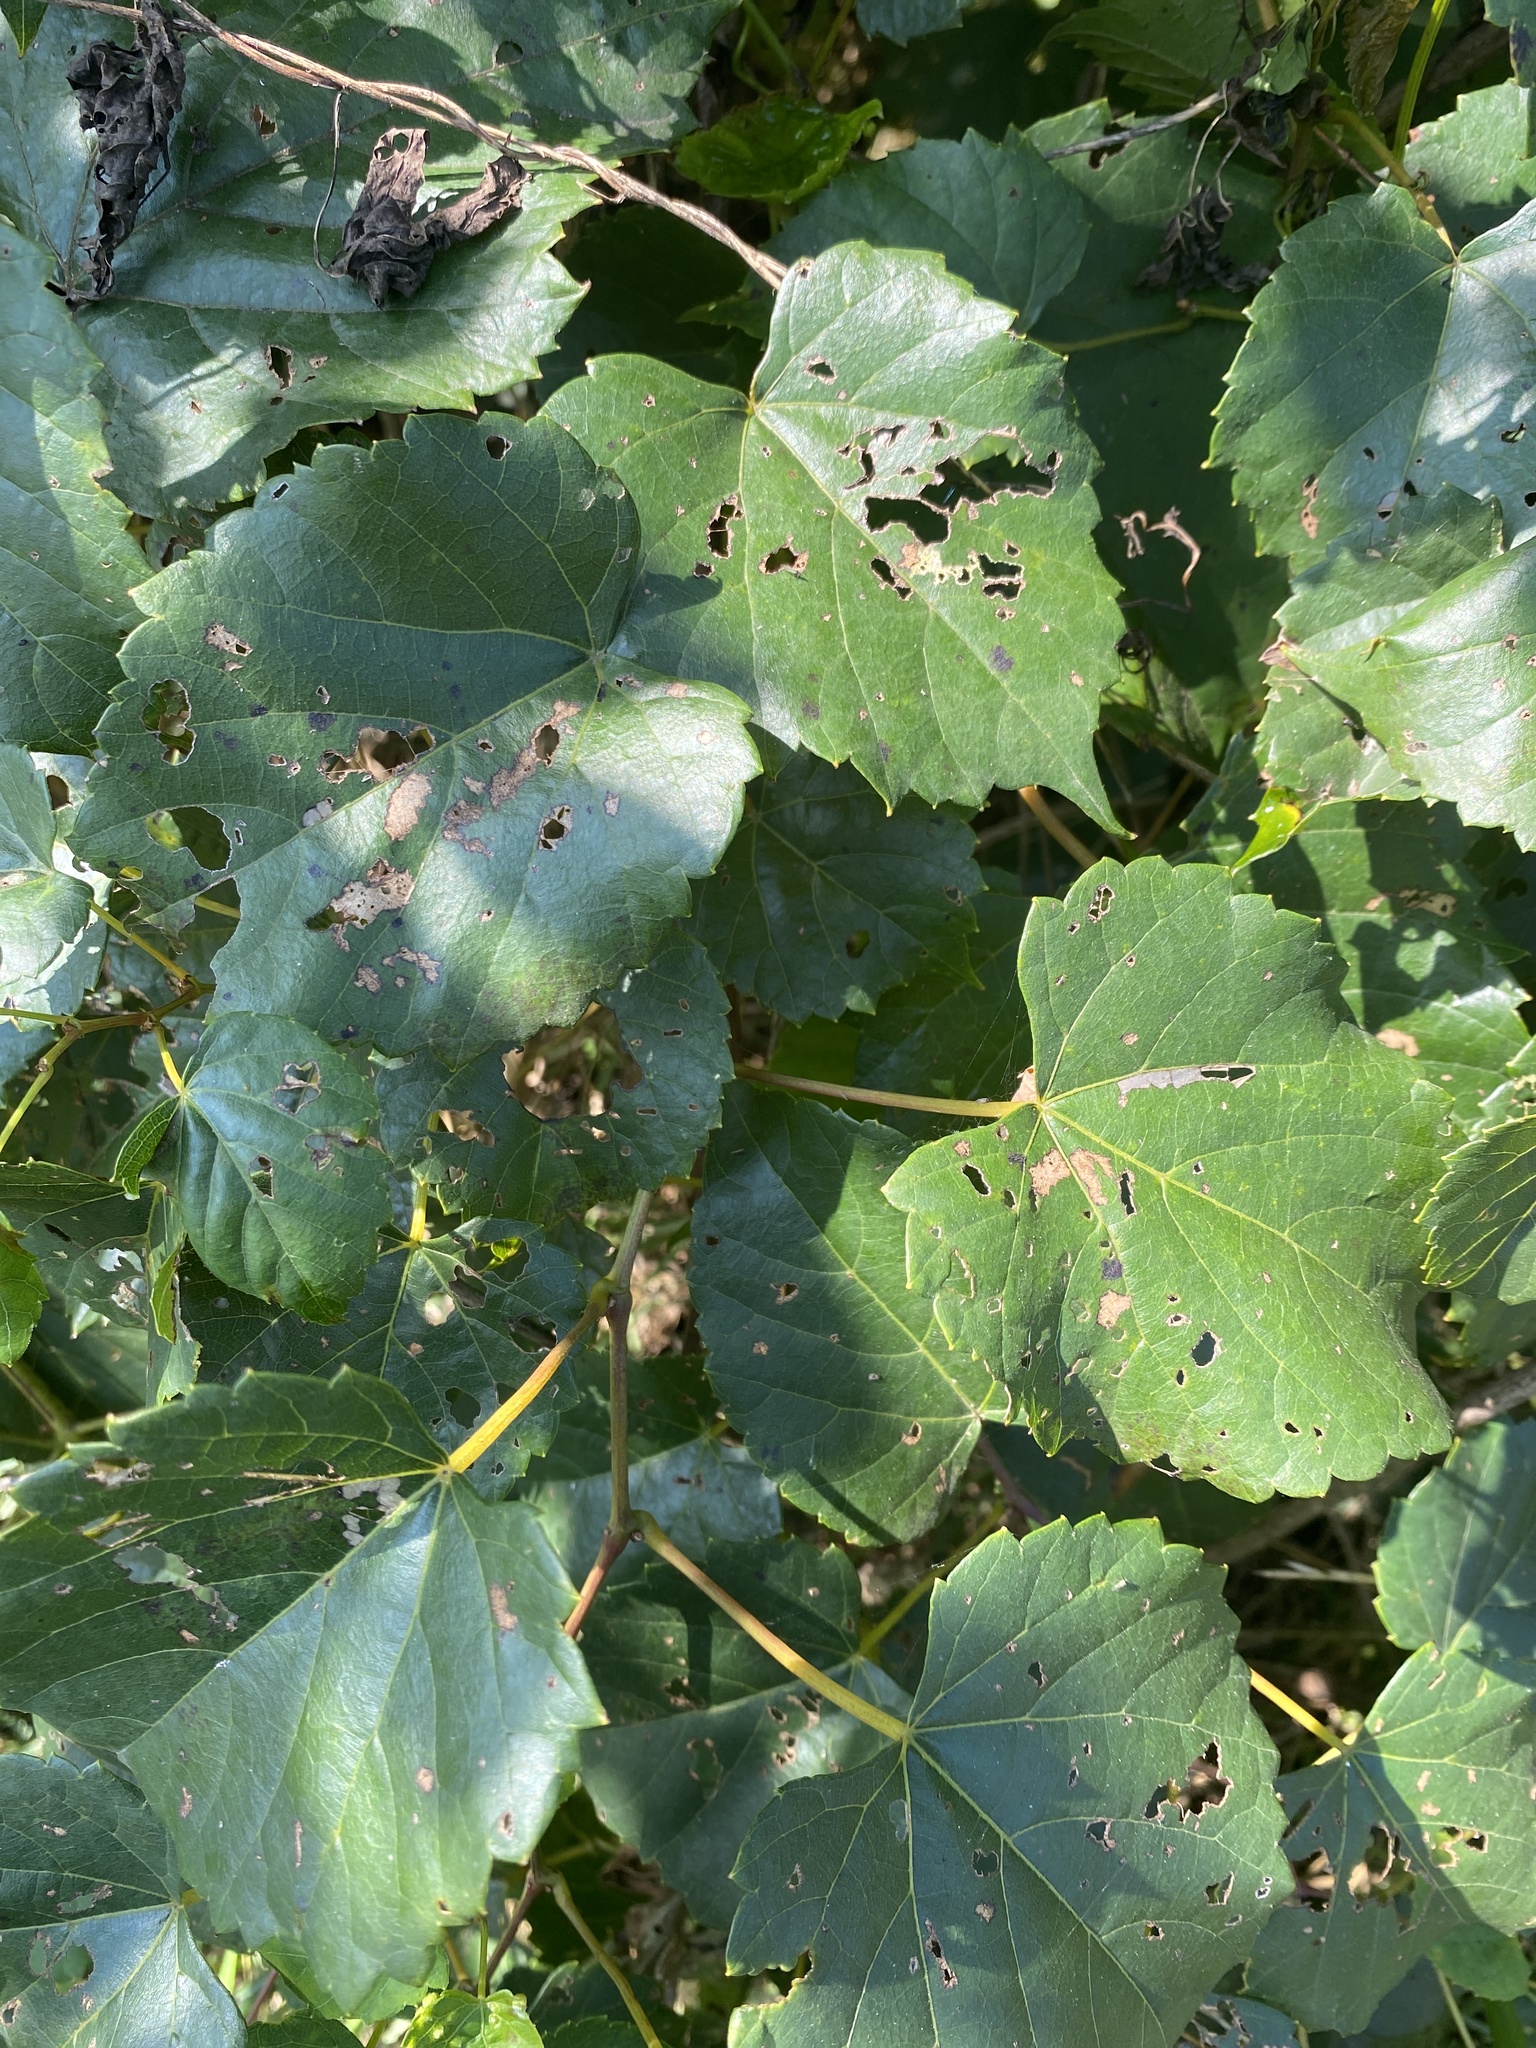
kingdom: Plantae
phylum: Tracheophyta
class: Magnoliopsida
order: Vitales
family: Vitaceae
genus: Vitis
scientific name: Vitis vulpina
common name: Frost grape
